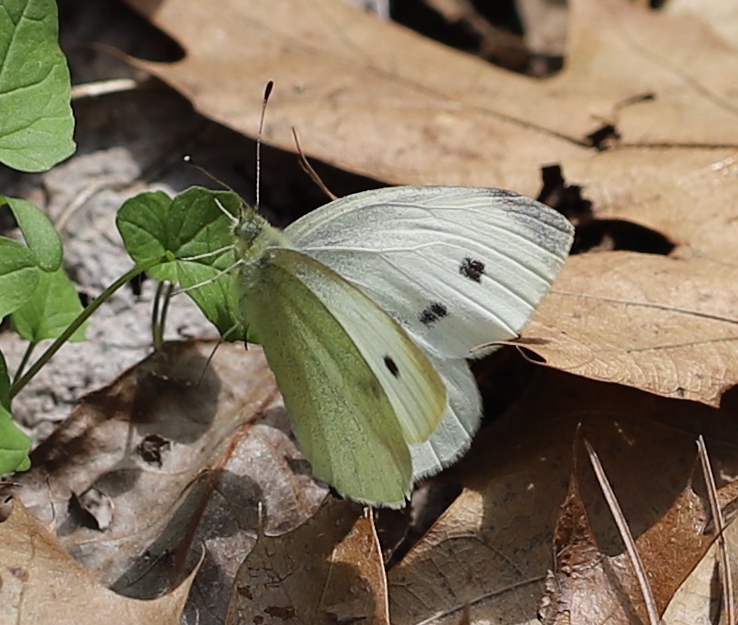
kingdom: Animalia
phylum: Arthropoda
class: Insecta
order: Lepidoptera
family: Pieridae
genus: Pieris
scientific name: Pieris rapae
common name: Small white
